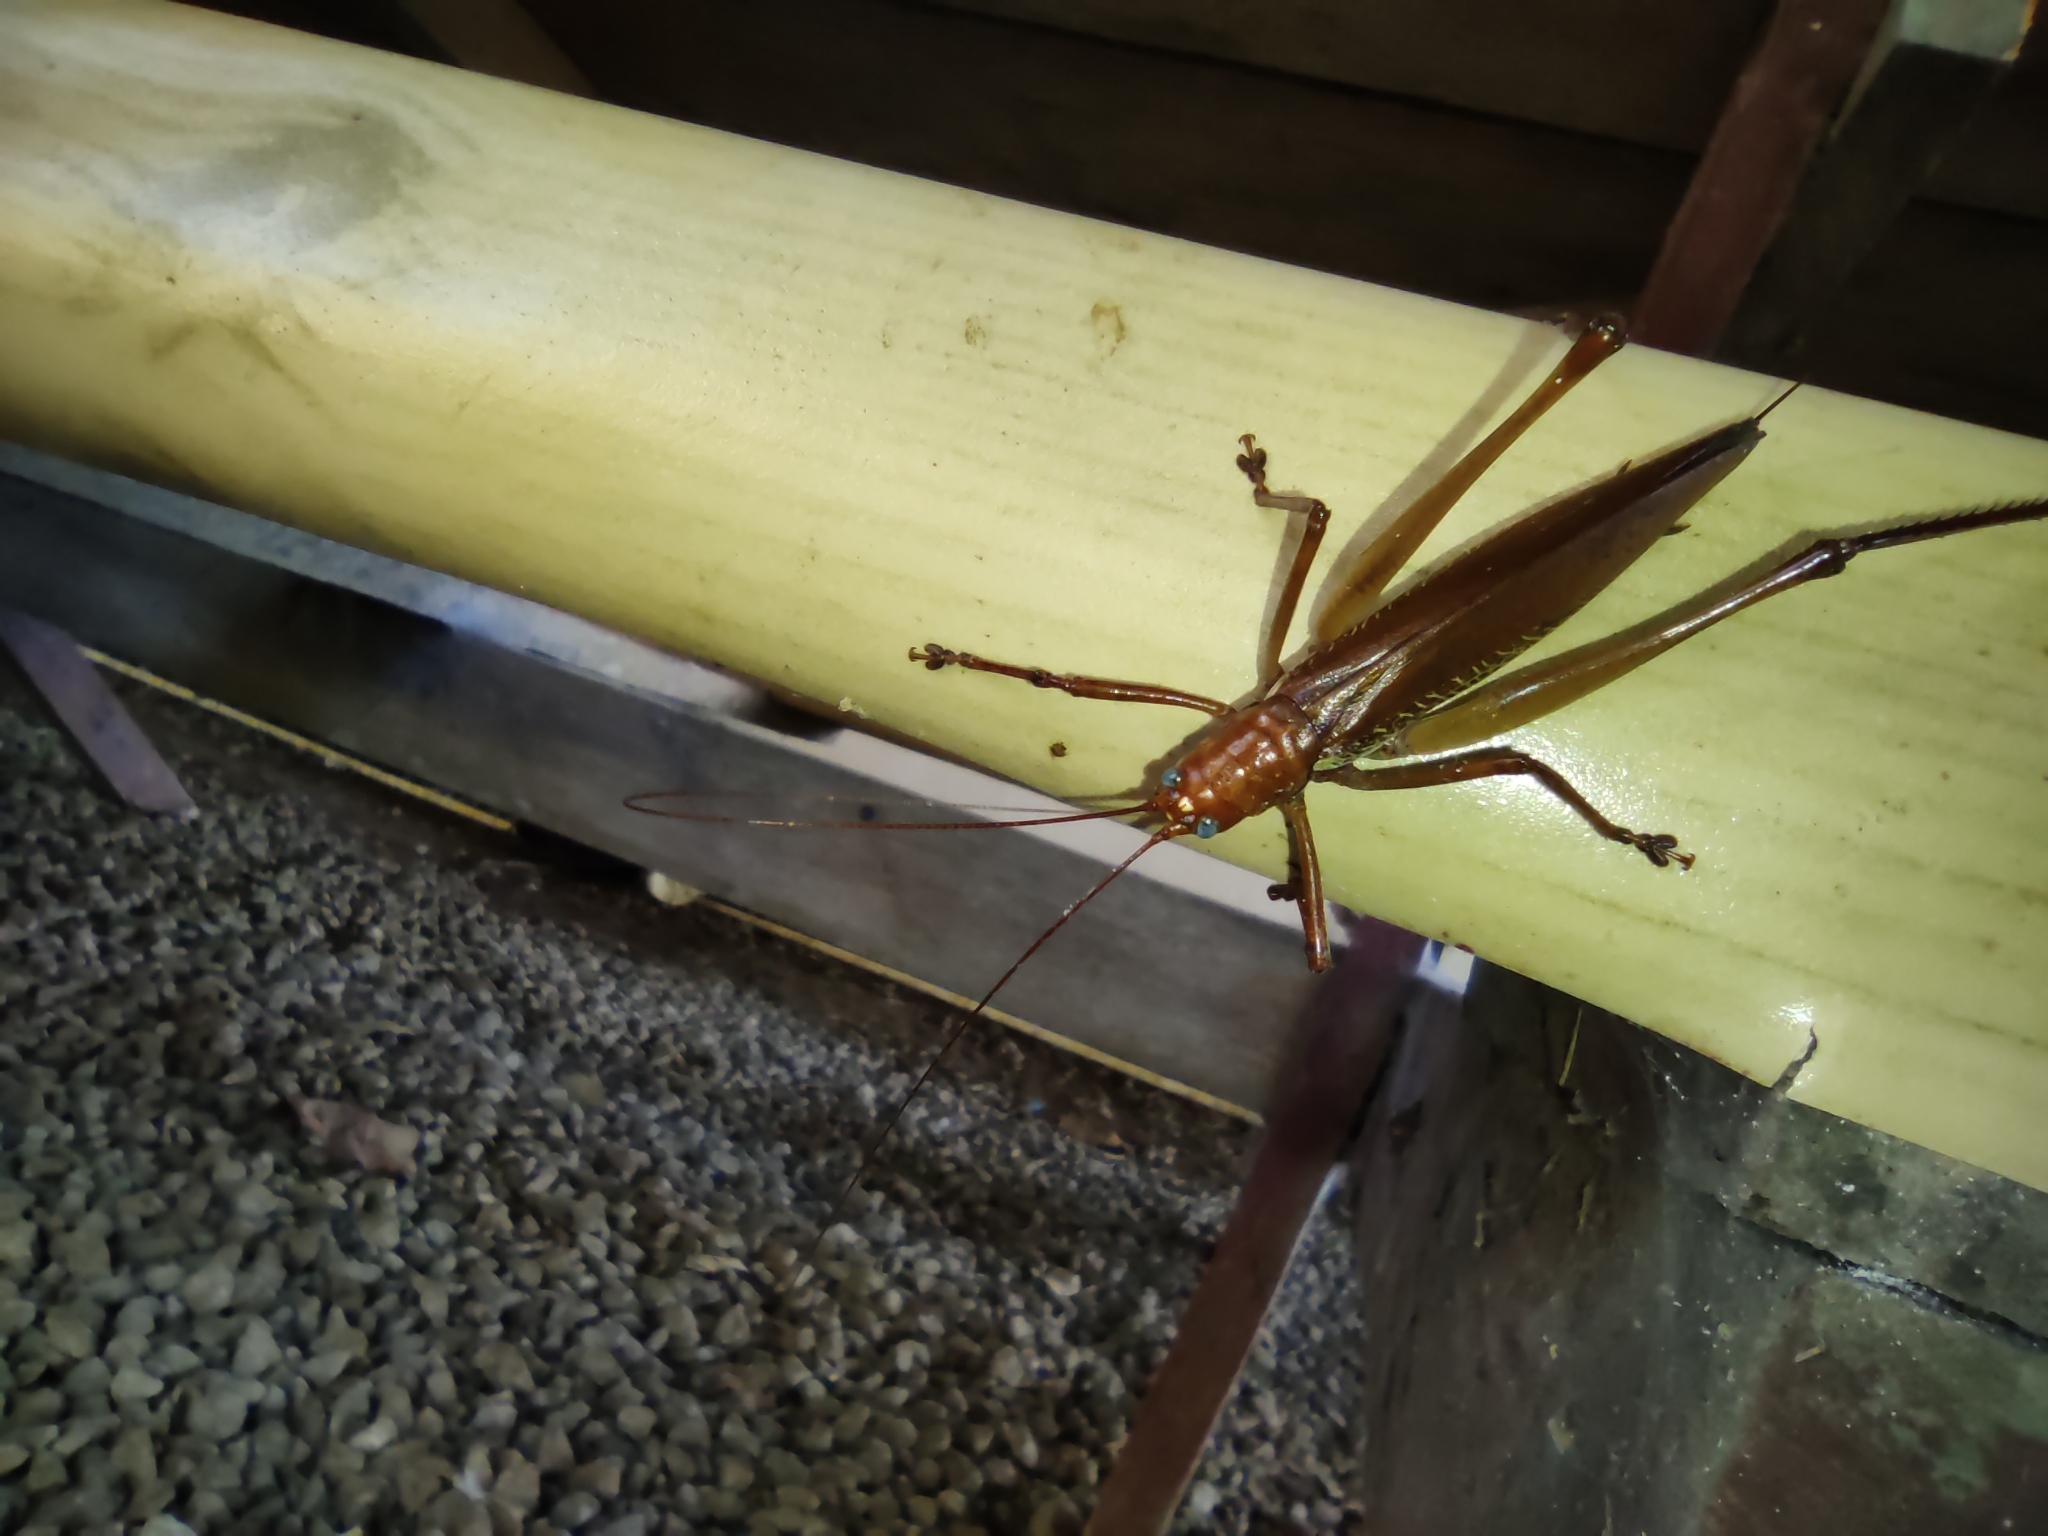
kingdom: Animalia
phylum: Arthropoda
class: Insecta
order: Orthoptera
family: Tettigoniidae
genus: Ischnomela
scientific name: Ischnomela pulchripennis
